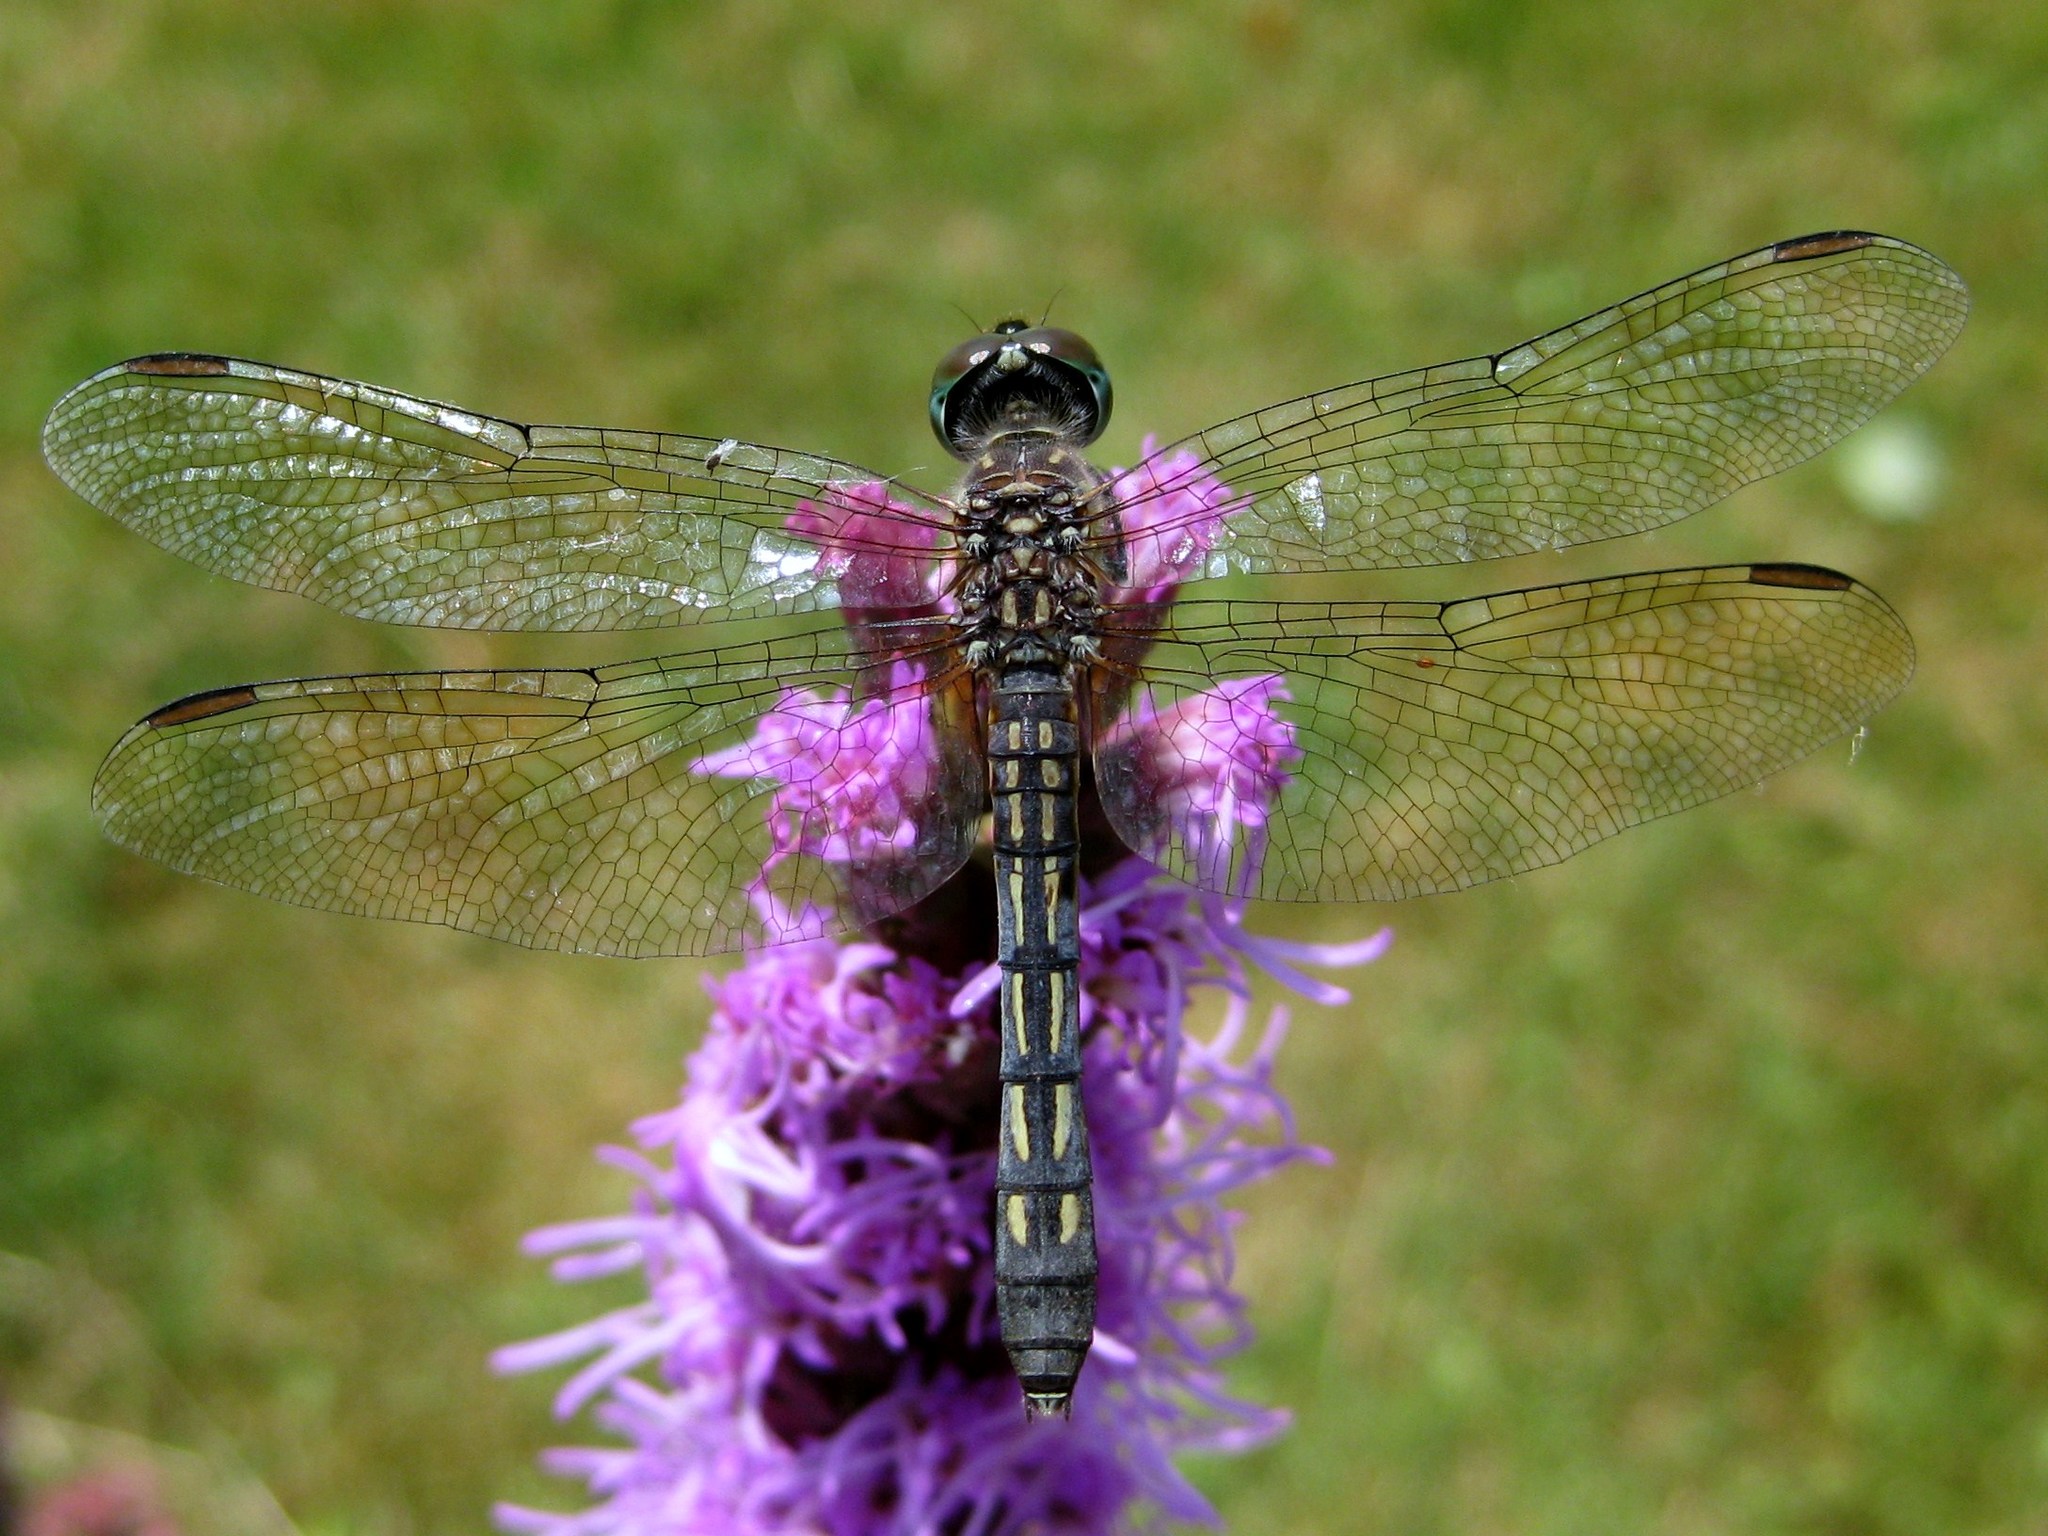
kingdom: Animalia
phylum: Arthropoda
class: Insecta
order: Odonata
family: Libellulidae
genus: Pachydiplax
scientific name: Pachydiplax longipennis
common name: Blue dasher
